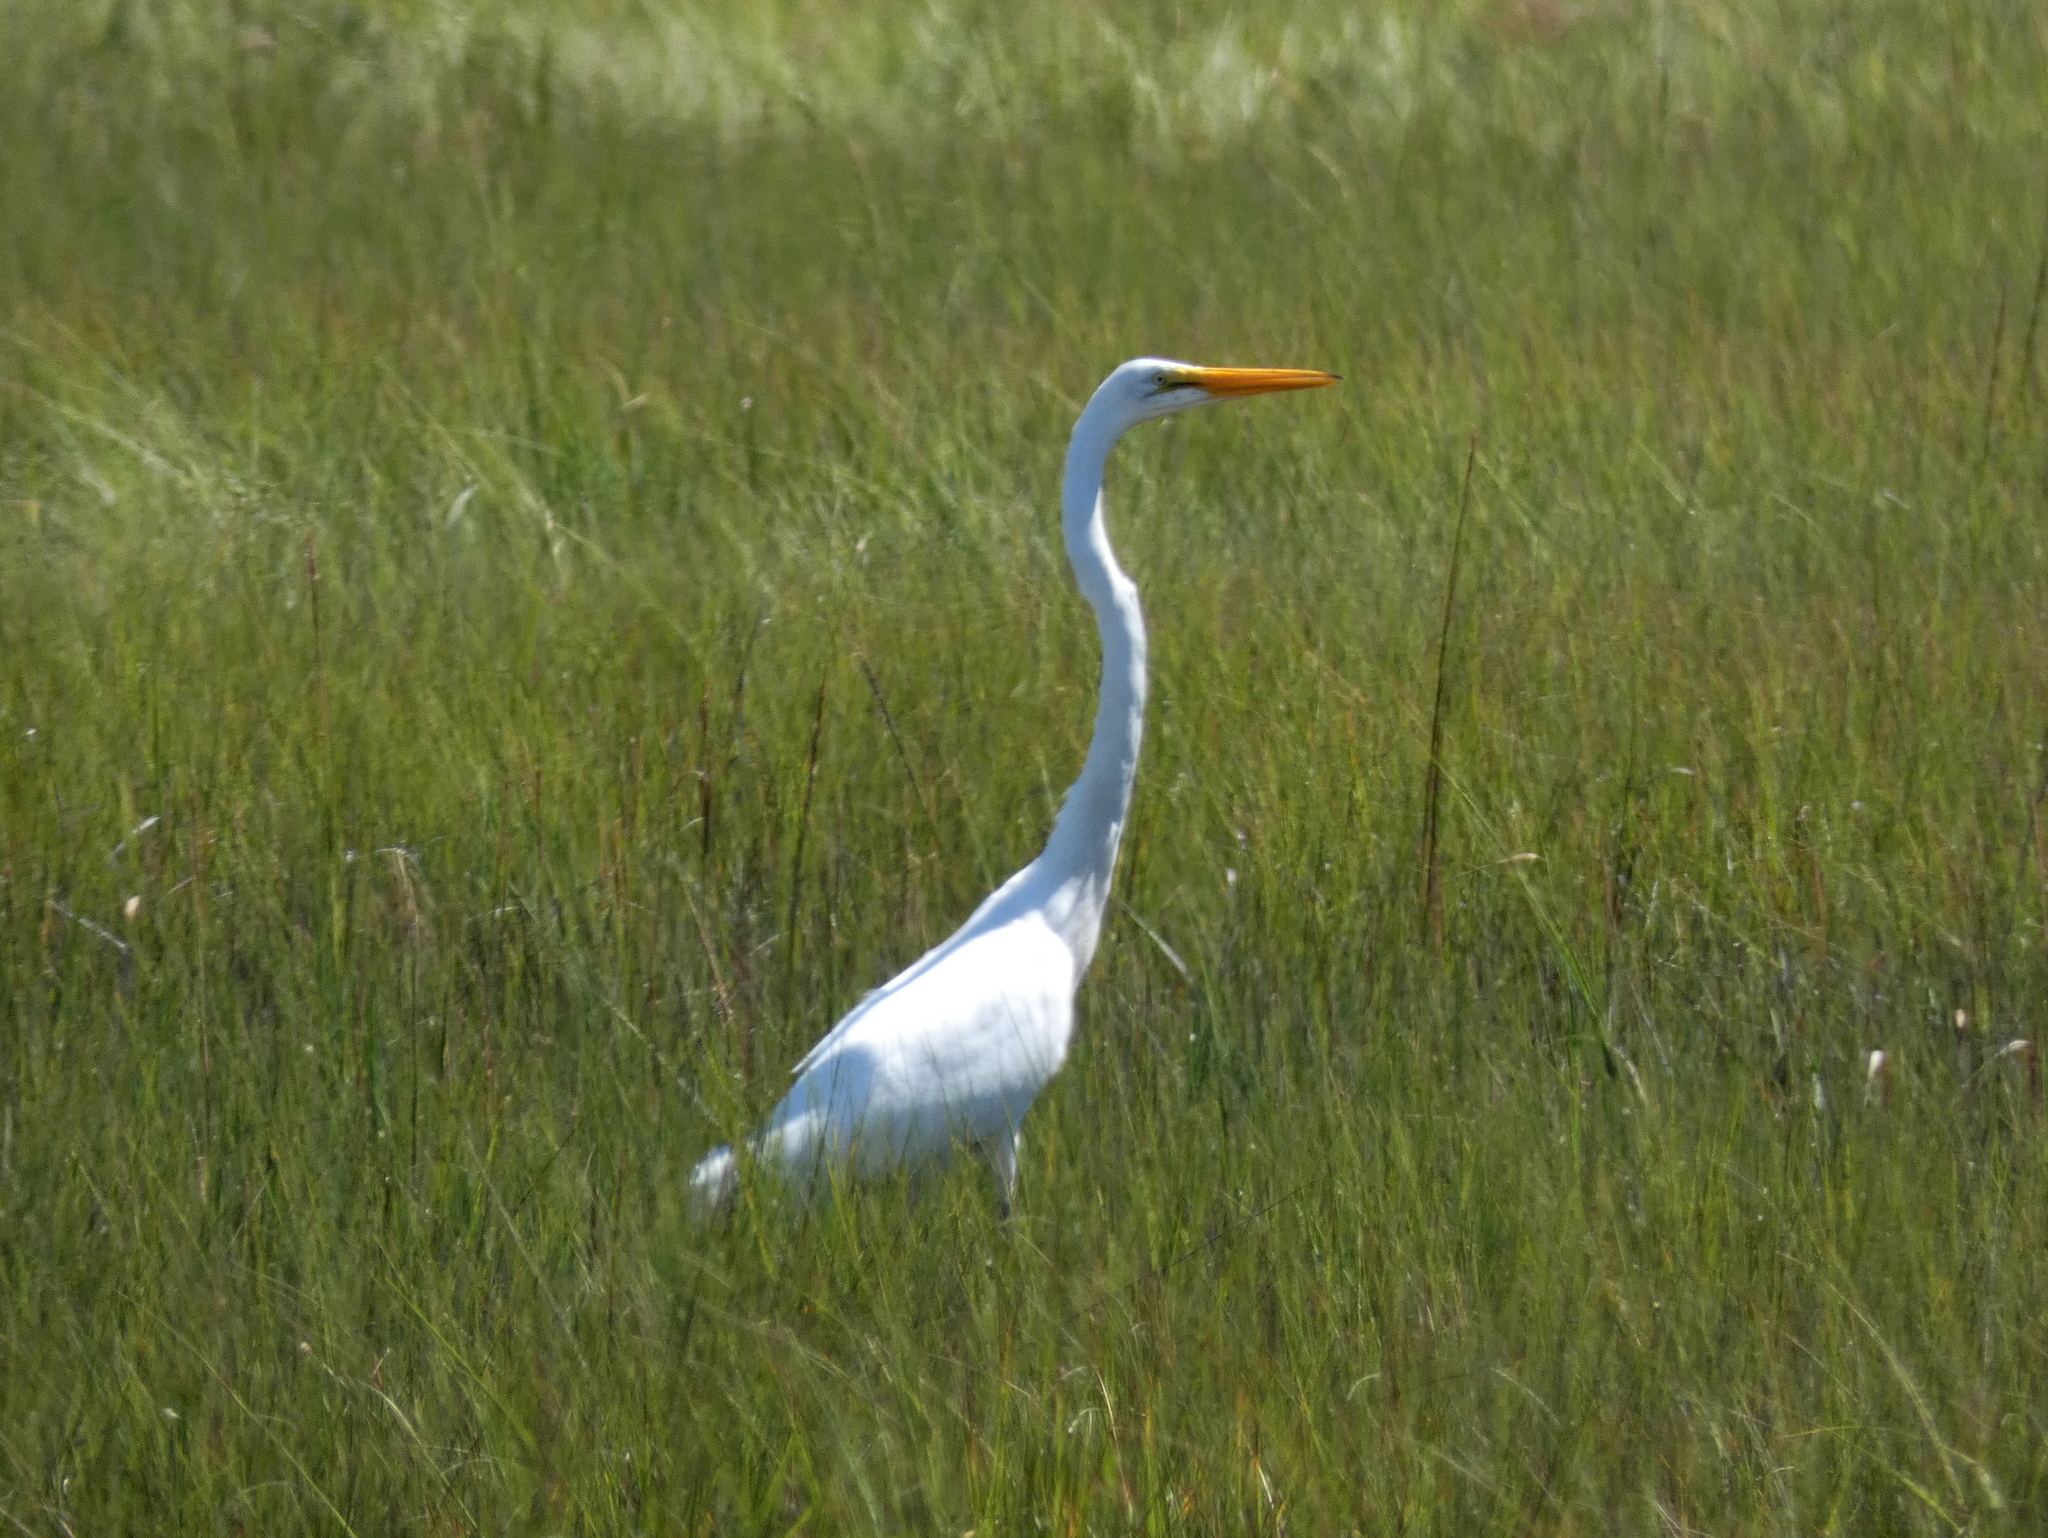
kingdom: Animalia
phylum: Chordata
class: Aves
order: Pelecaniformes
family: Ardeidae
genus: Ardea
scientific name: Ardea alba
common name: Great egret
